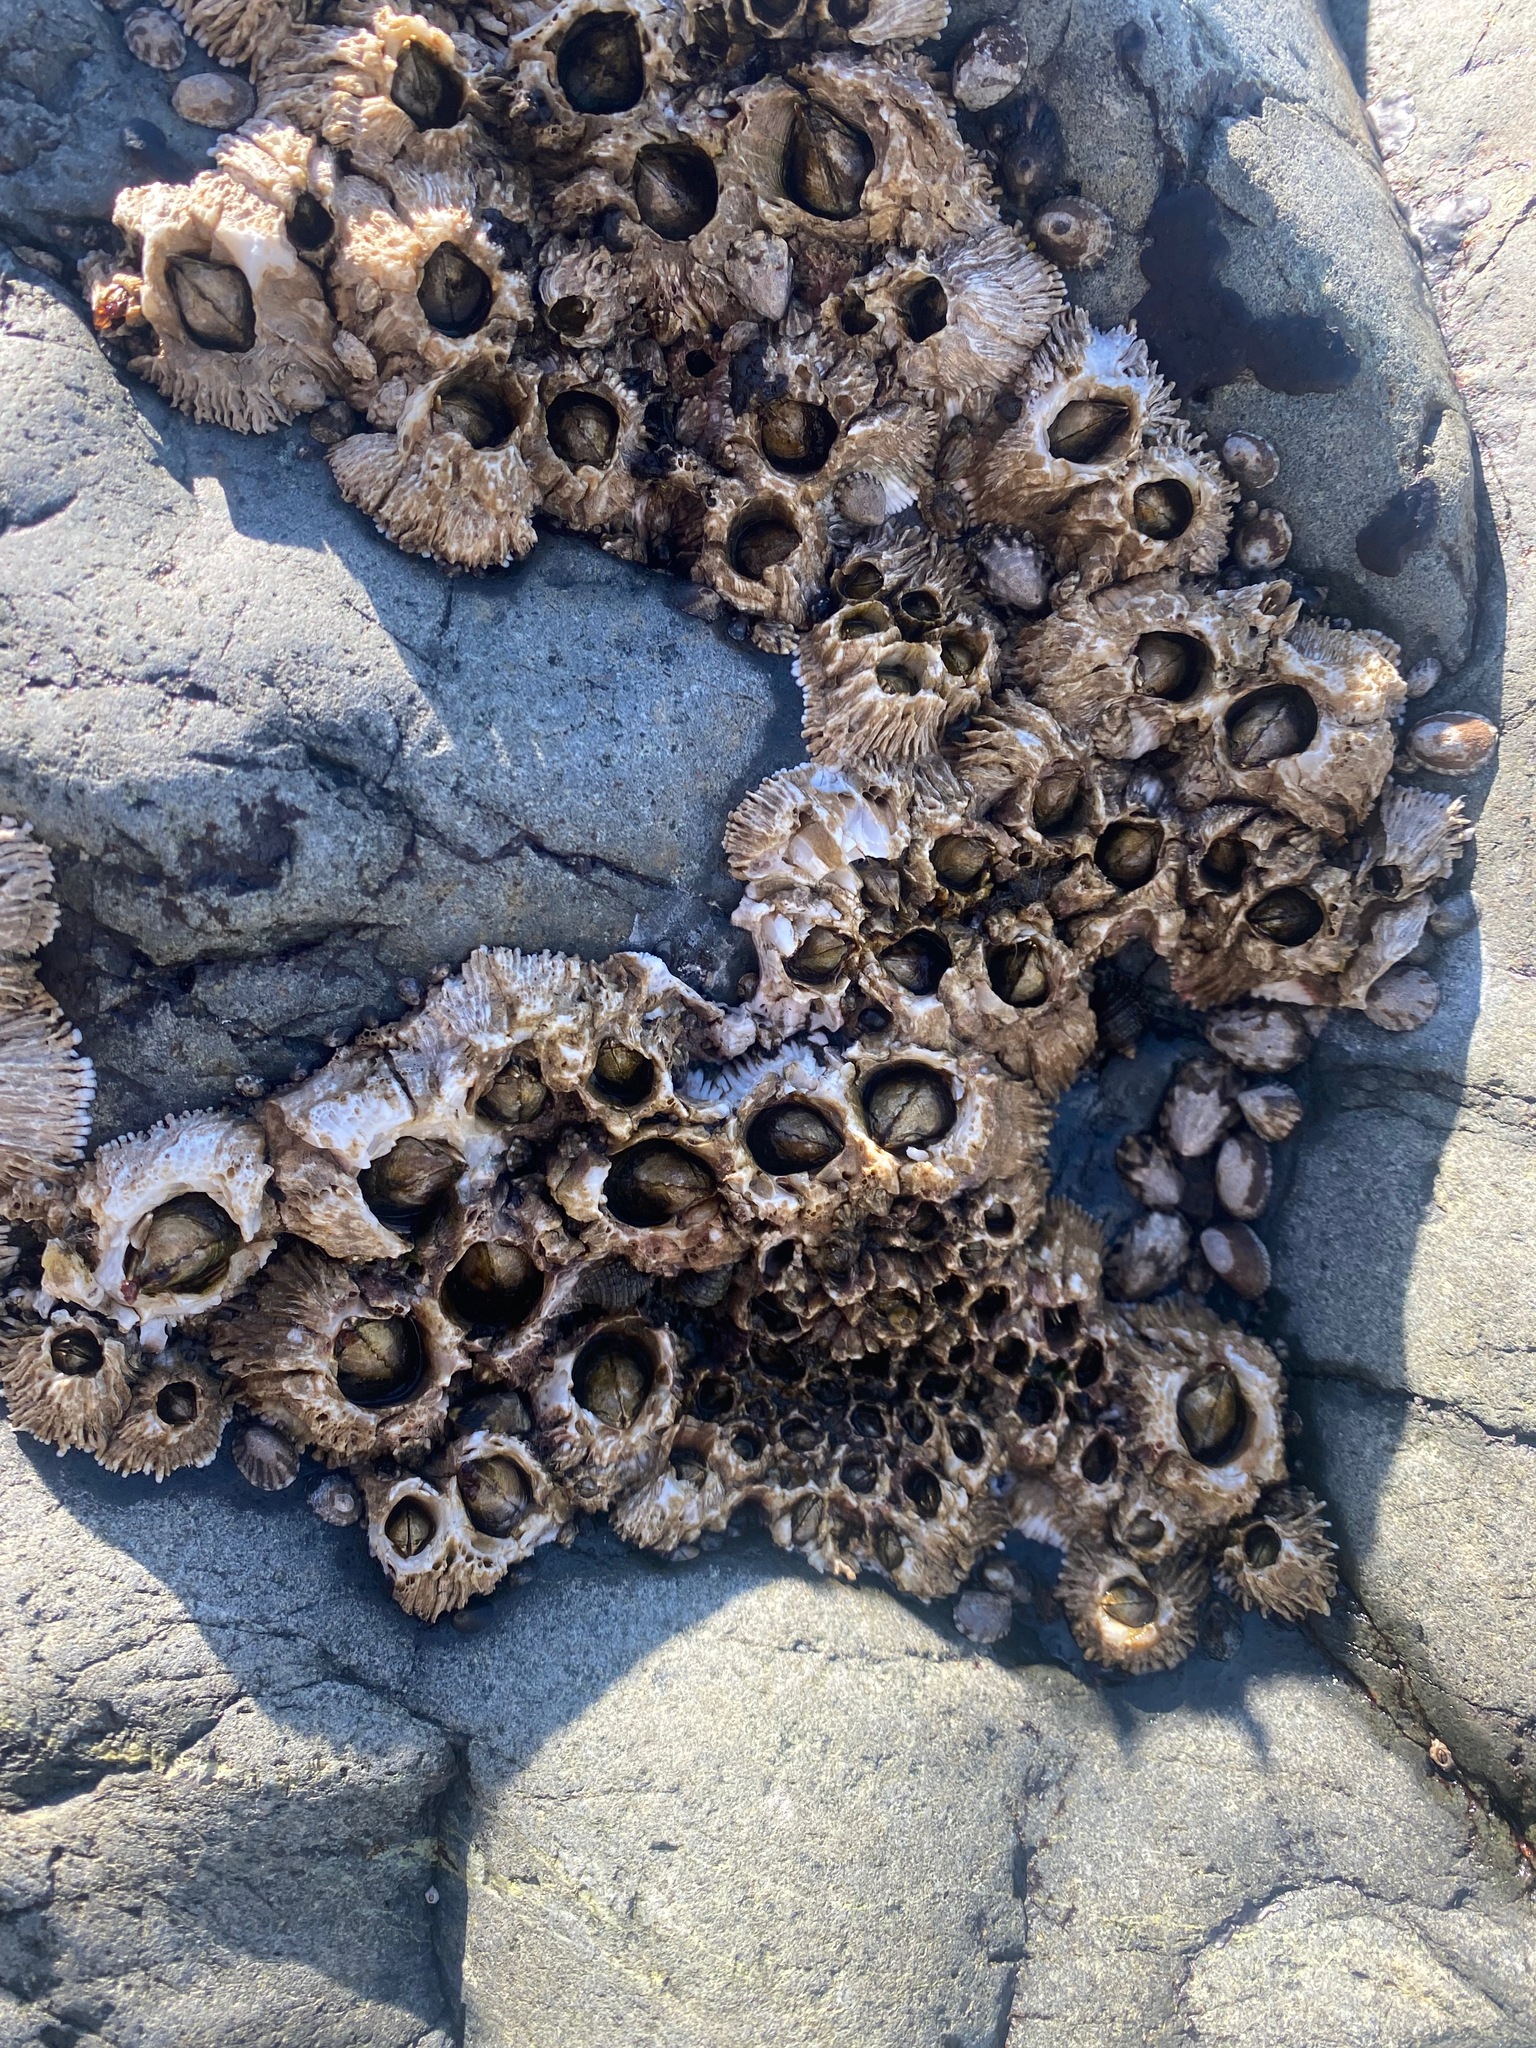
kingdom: Animalia
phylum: Arthropoda
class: Maxillopoda
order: Sessilia
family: Archaeobalanidae
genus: Semibalanus
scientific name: Semibalanus cariosus
